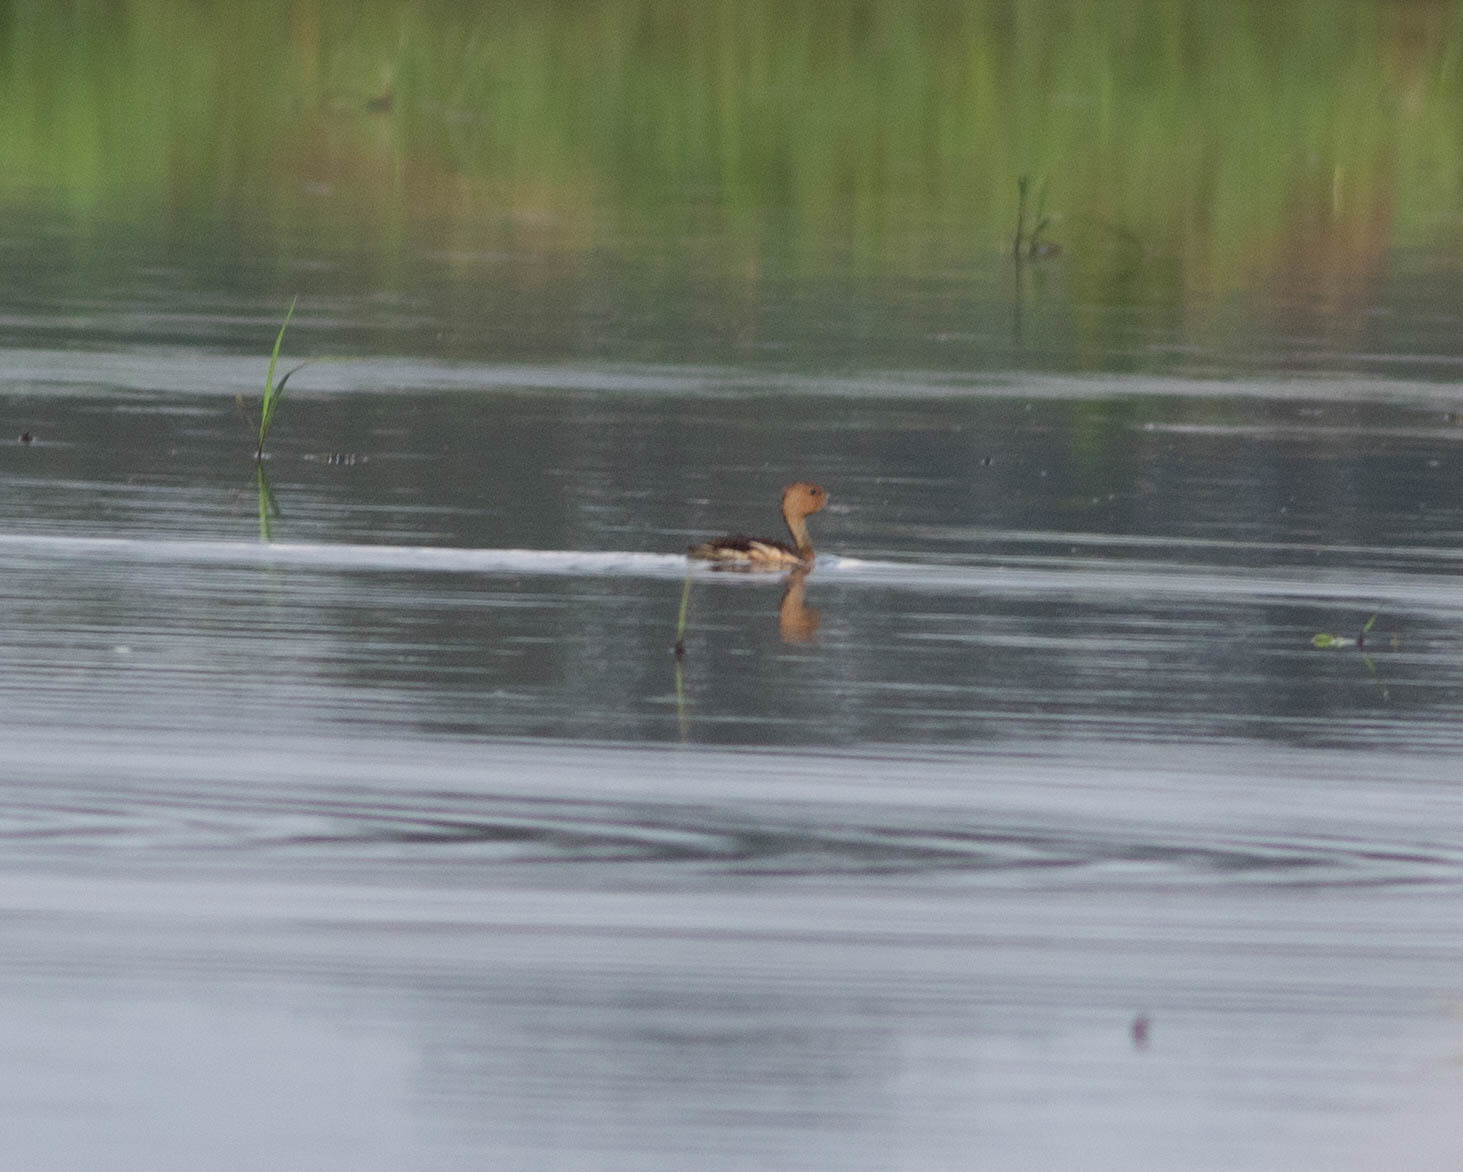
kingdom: Animalia
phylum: Chordata
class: Aves
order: Anseriformes
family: Anatidae
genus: Dendrocygna
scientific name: Dendrocygna bicolor
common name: Fulvous whistling duck
